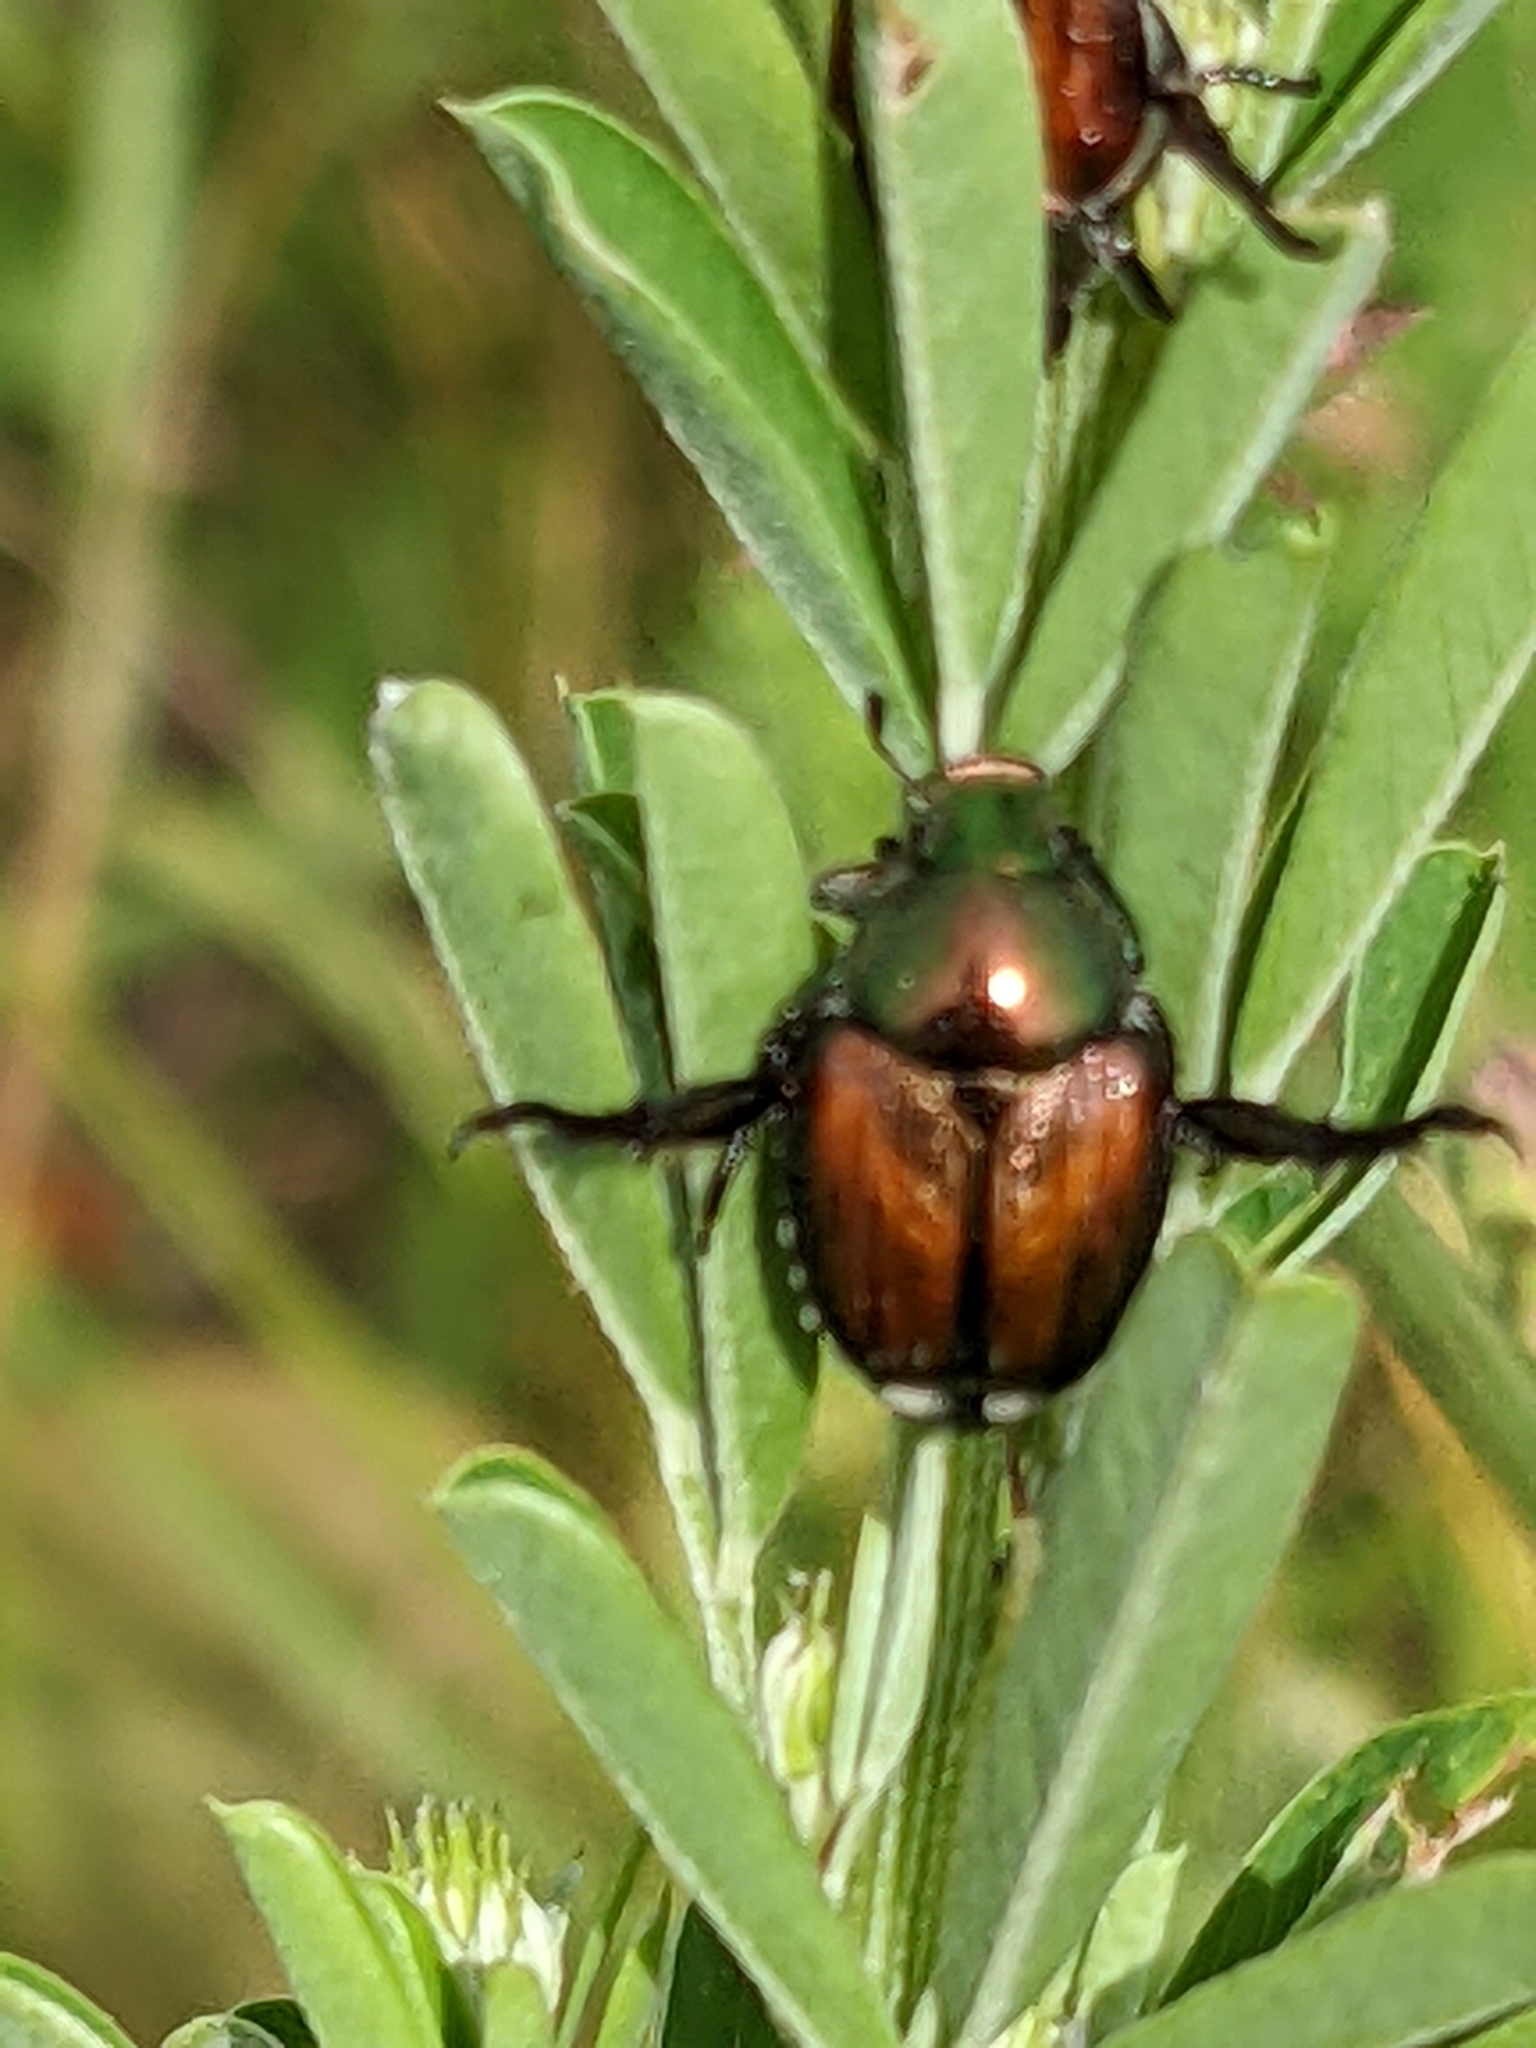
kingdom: Animalia
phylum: Arthropoda
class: Insecta
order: Coleoptera
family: Scarabaeidae
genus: Popillia
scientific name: Popillia japonica
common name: Japanese beetle
